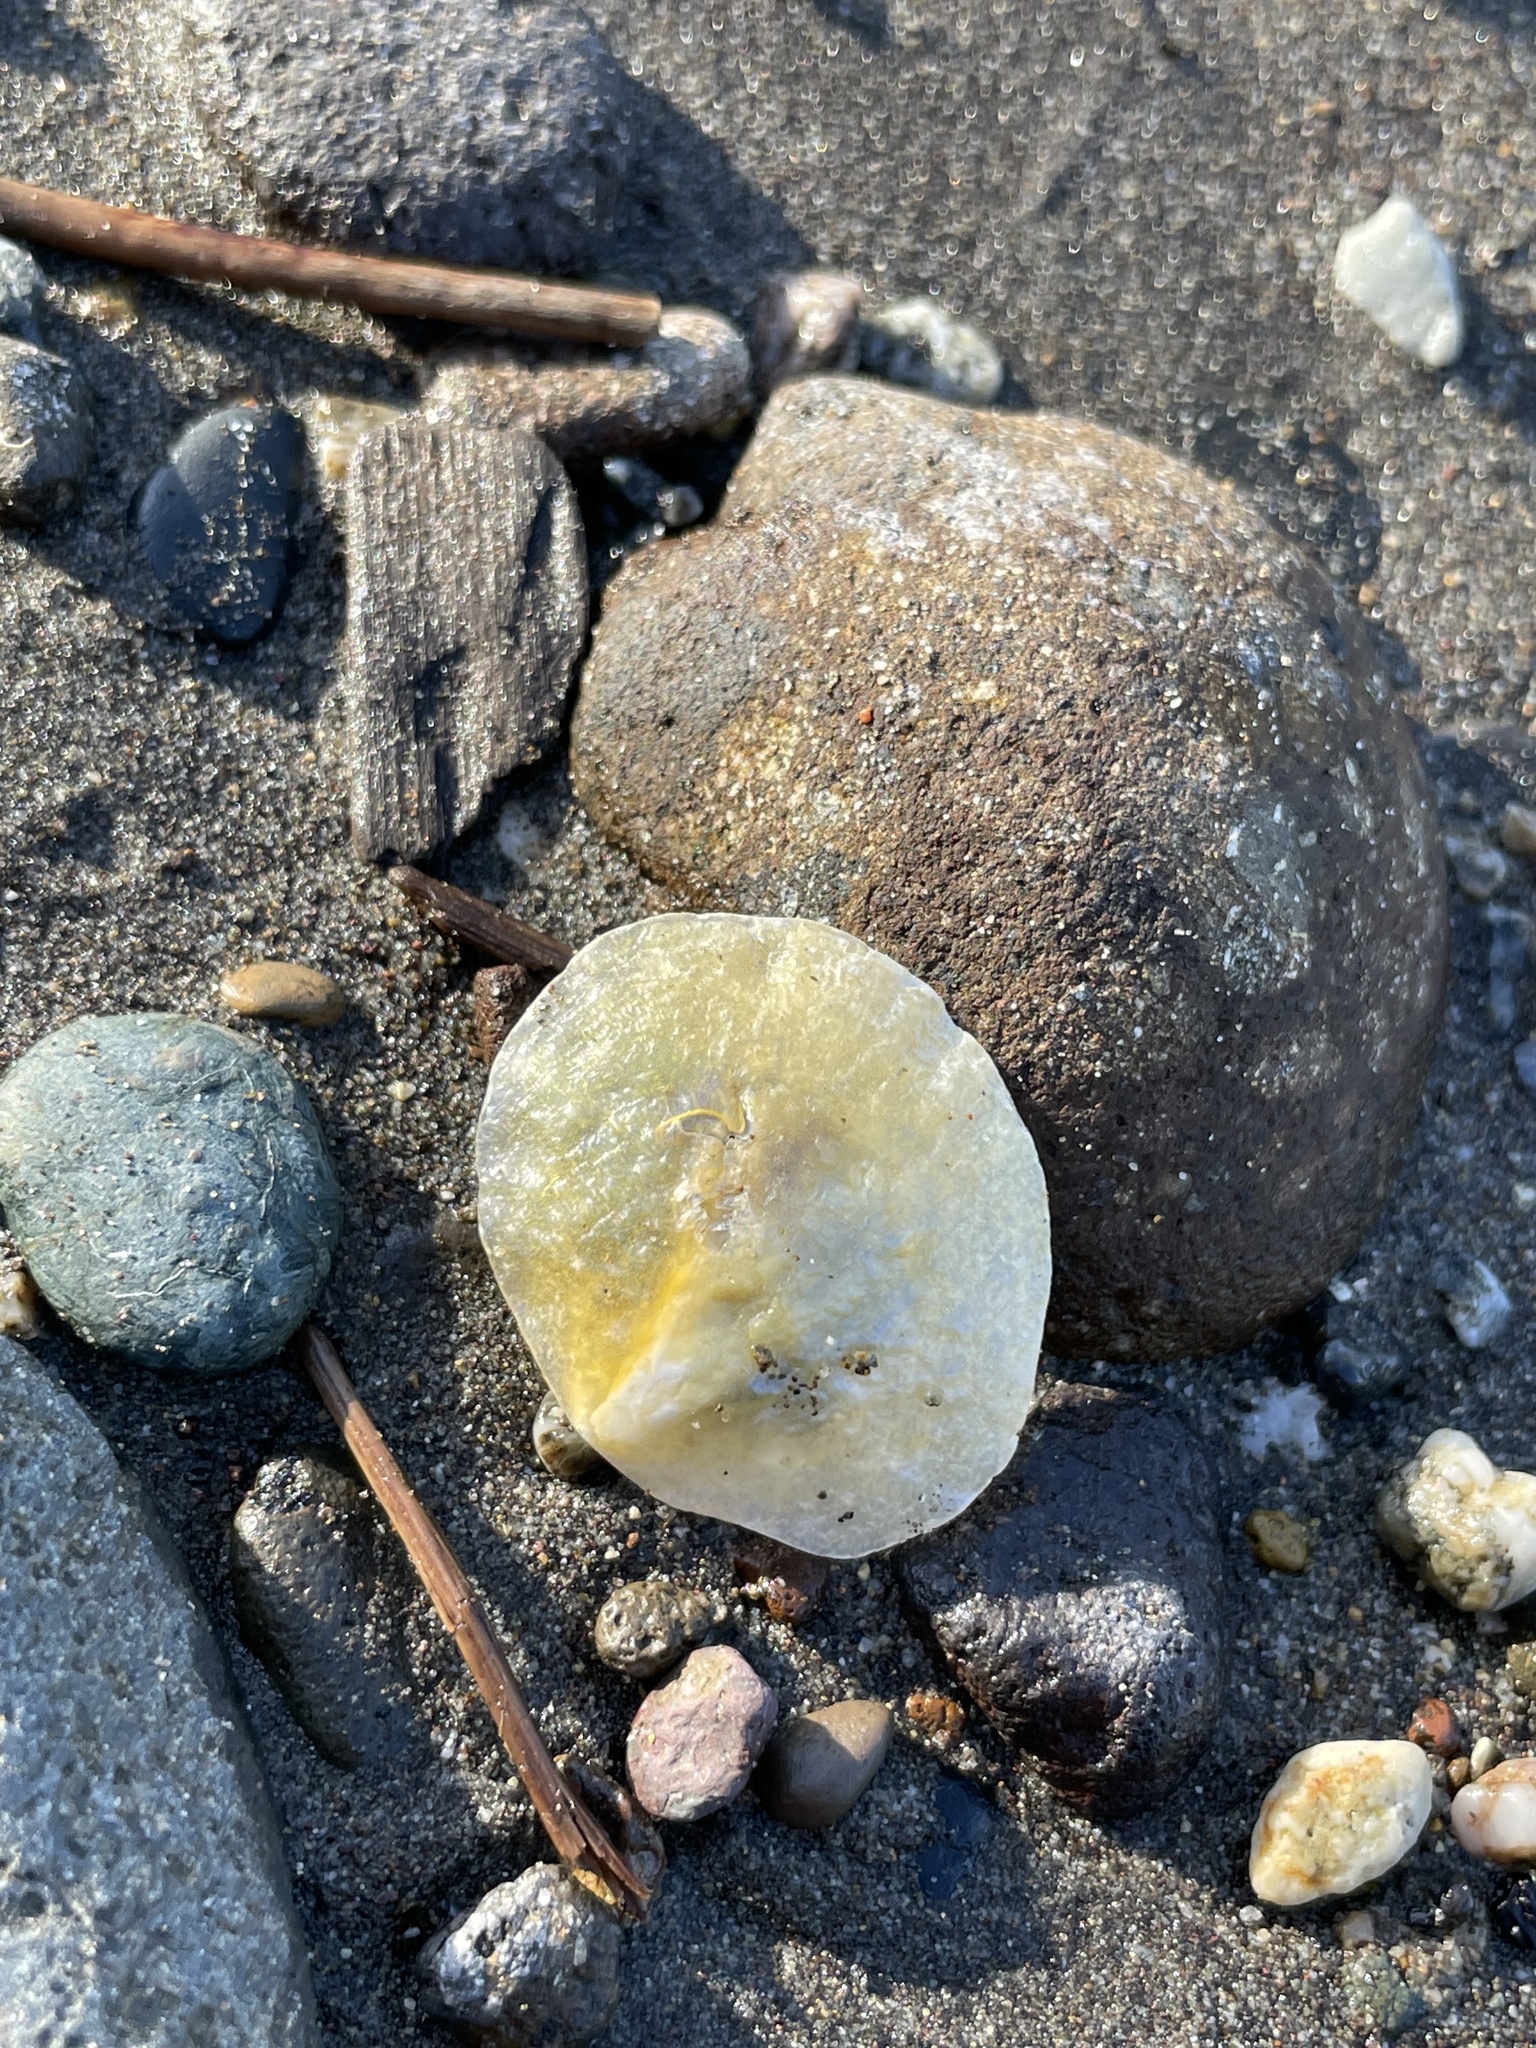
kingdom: Animalia
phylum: Mollusca
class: Bivalvia
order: Pectinida
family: Anomiidae
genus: Anomia
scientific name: Anomia chinensis
